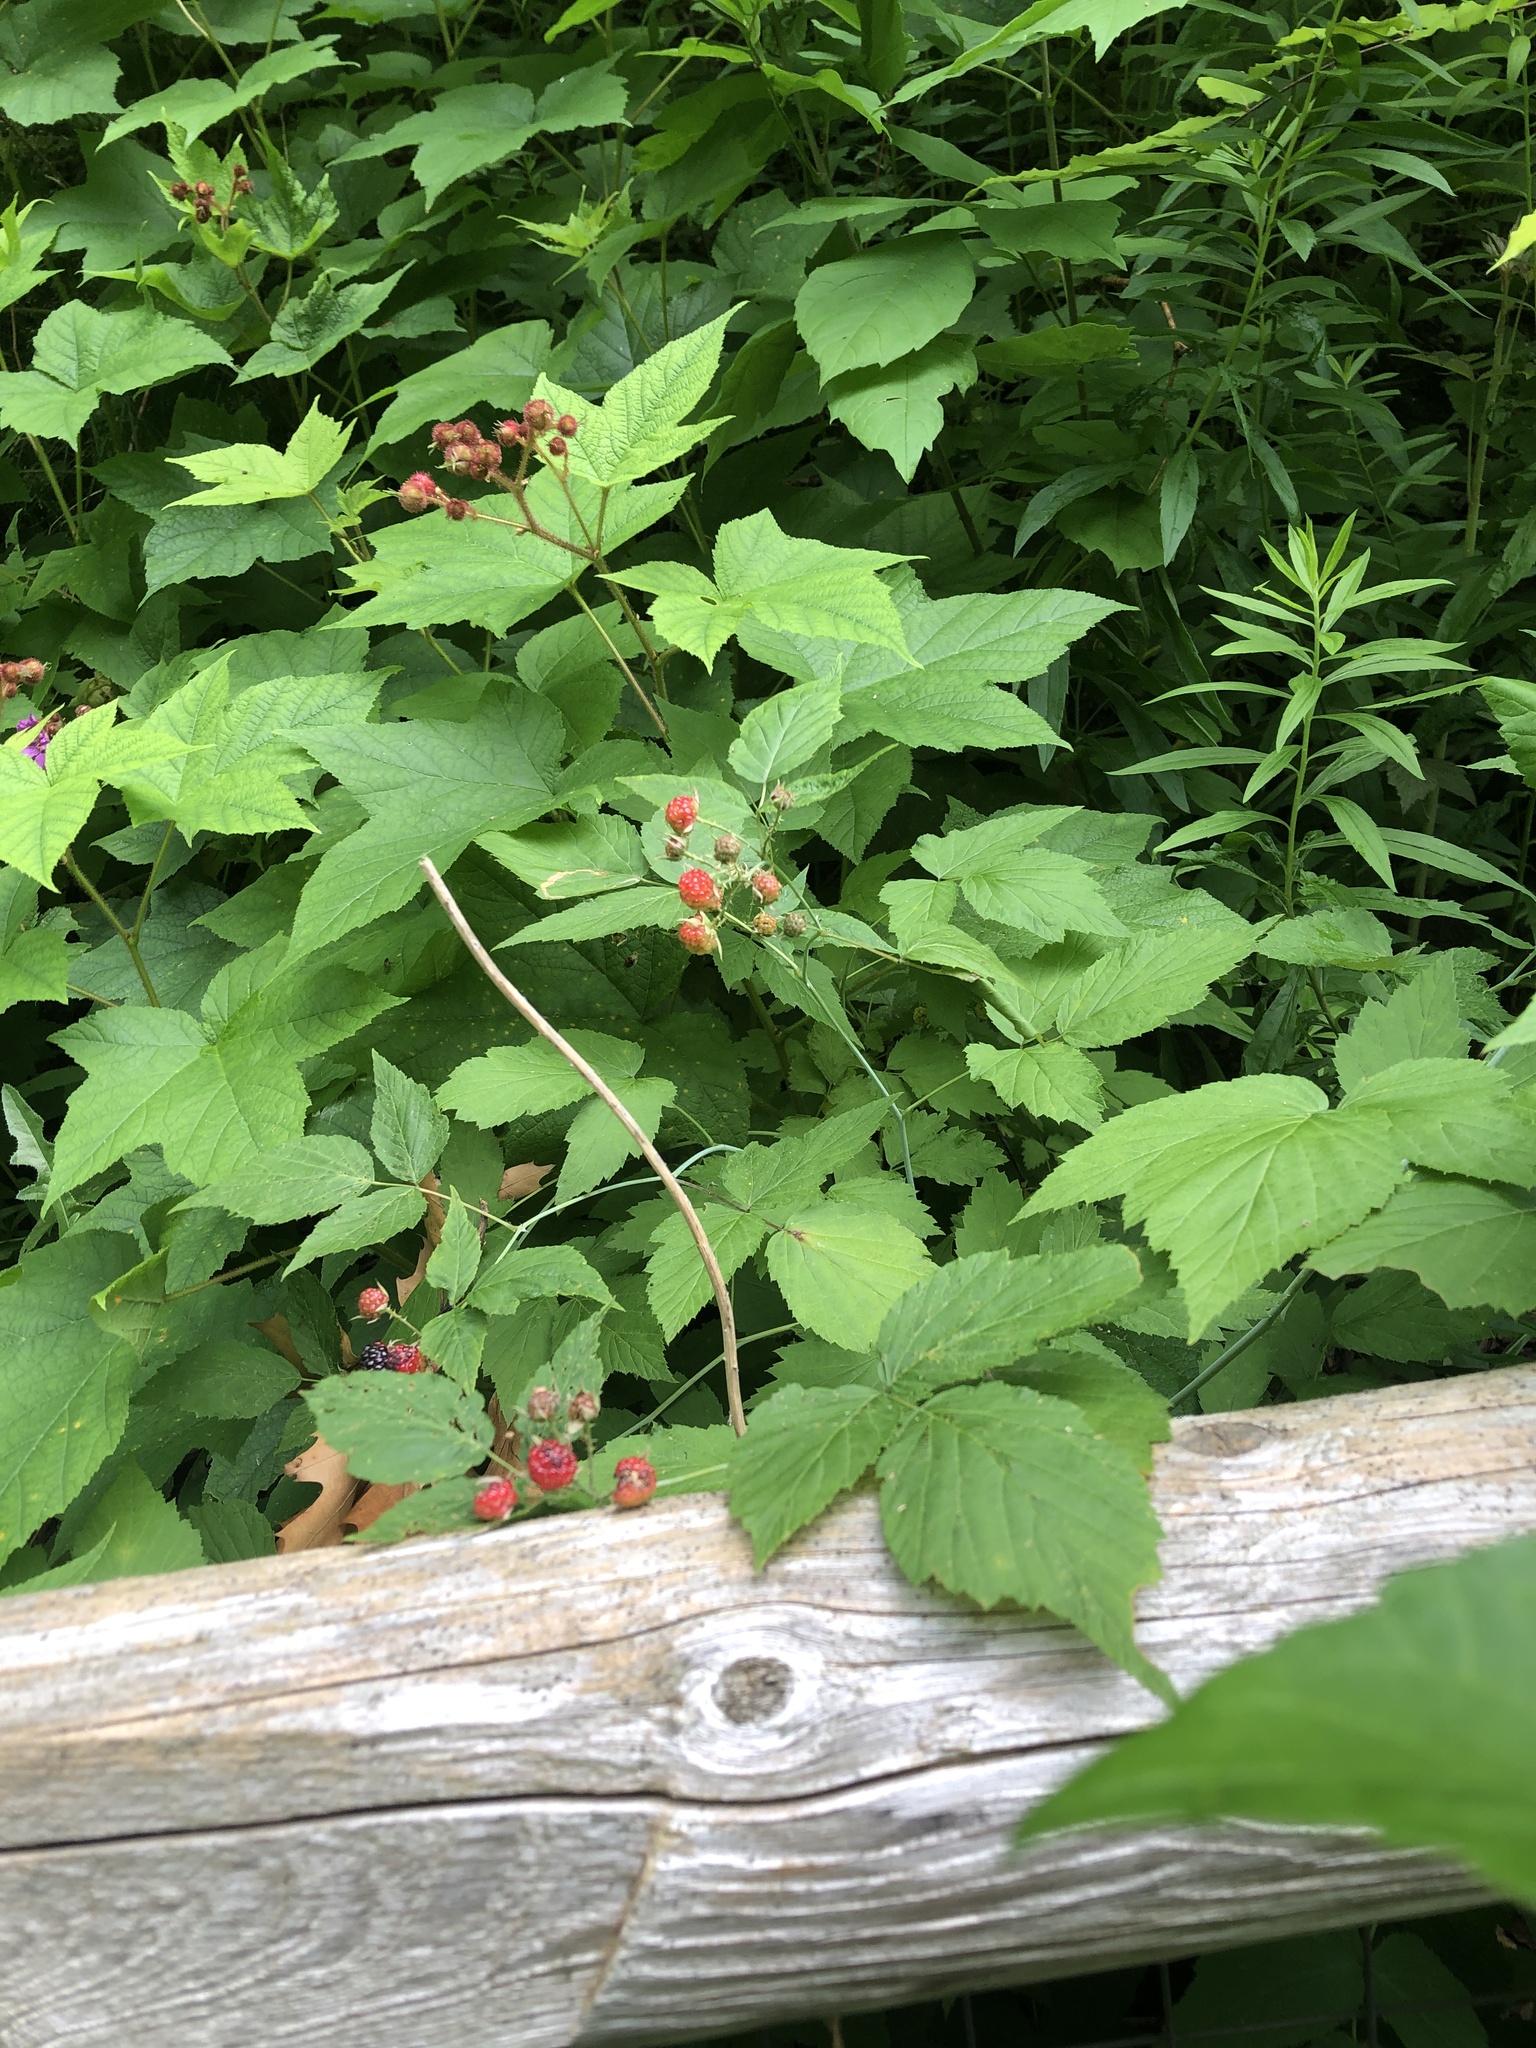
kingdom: Plantae
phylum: Tracheophyta
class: Magnoliopsida
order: Rosales
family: Rosaceae
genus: Rubus
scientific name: Rubus odoratus
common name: Purple-flowered raspberry
